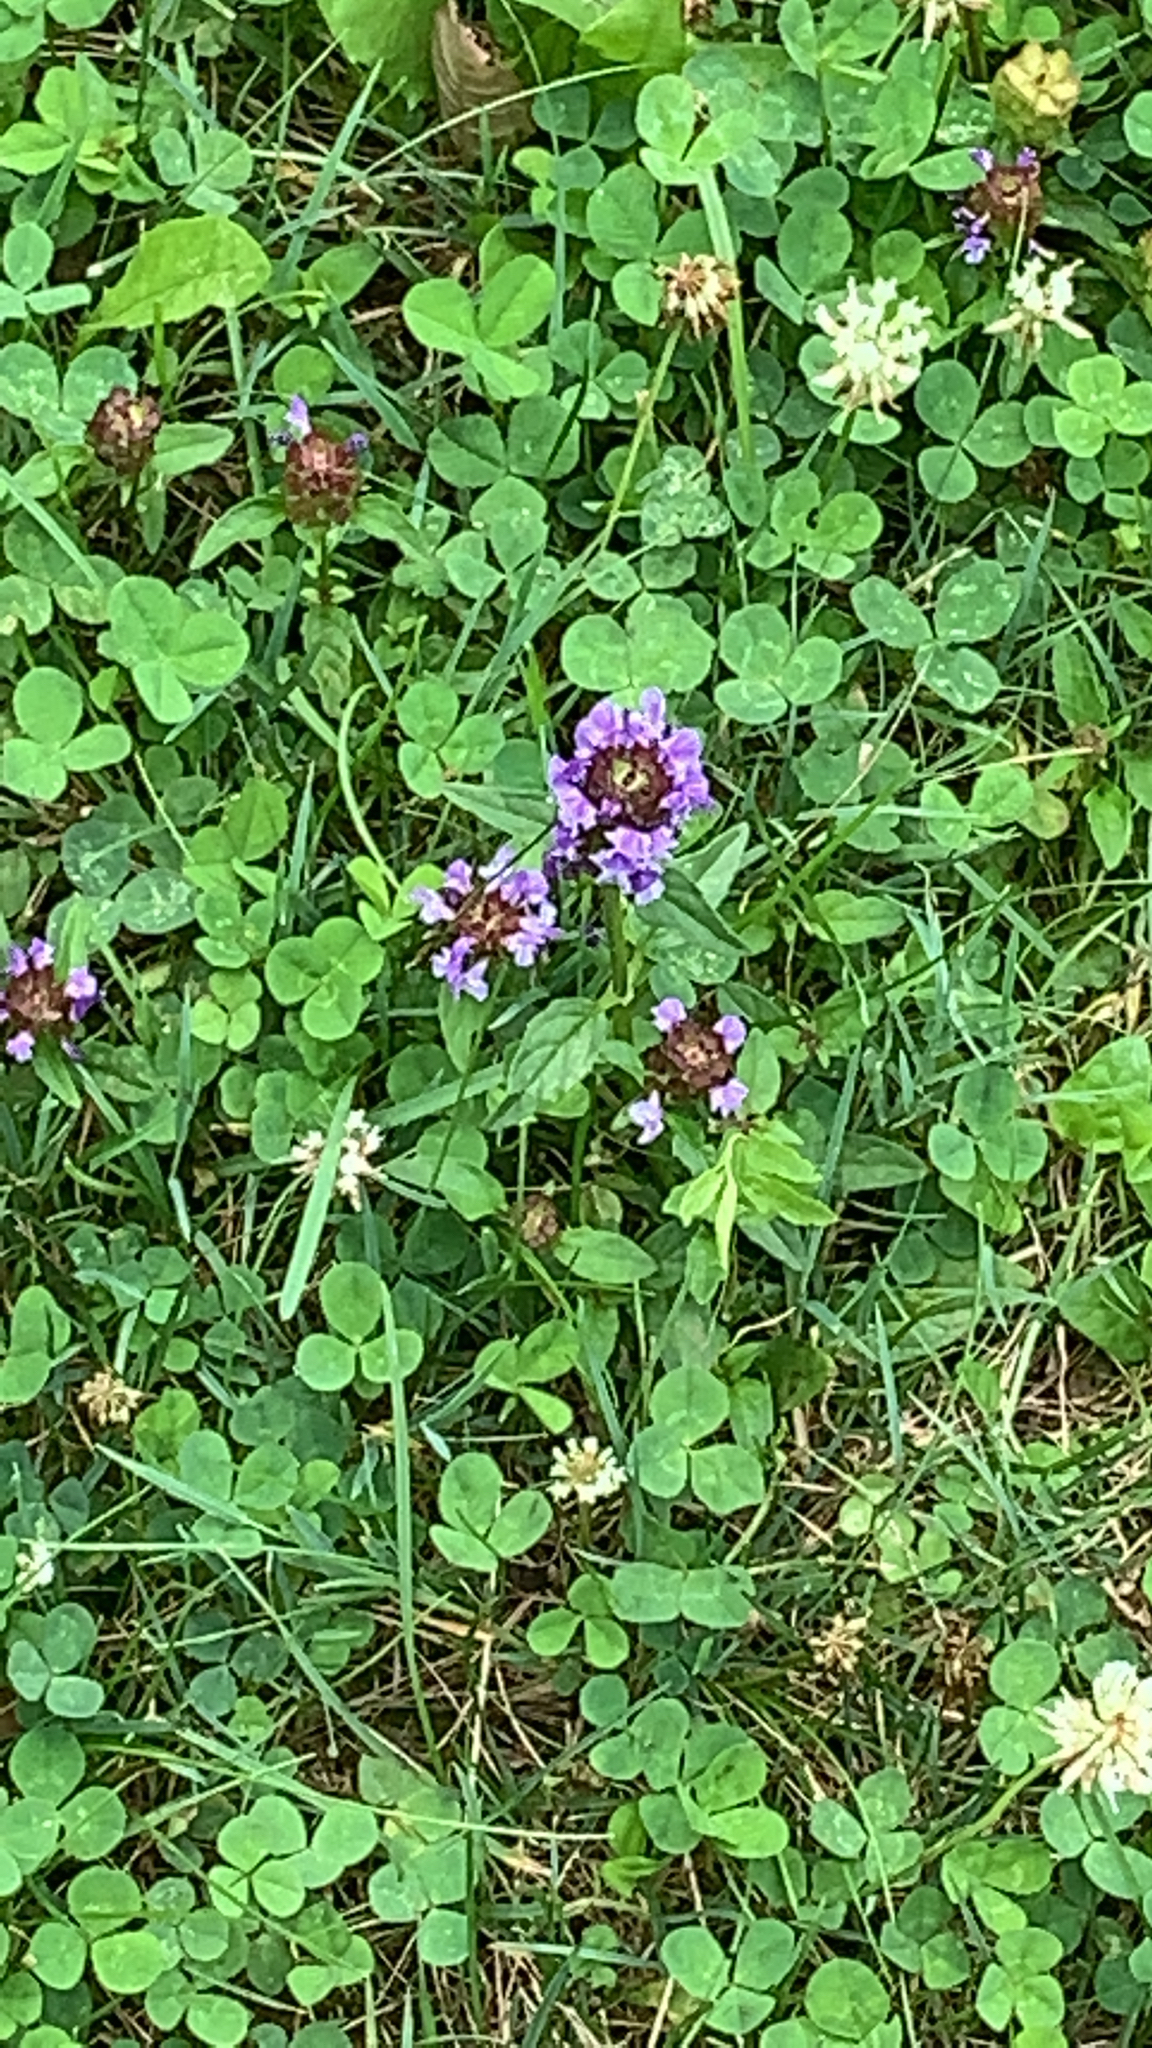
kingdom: Plantae
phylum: Tracheophyta
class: Magnoliopsida
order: Lamiales
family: Lamiaceae
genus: Prunella
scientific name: Prunella vulgaris
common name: Heal-all
